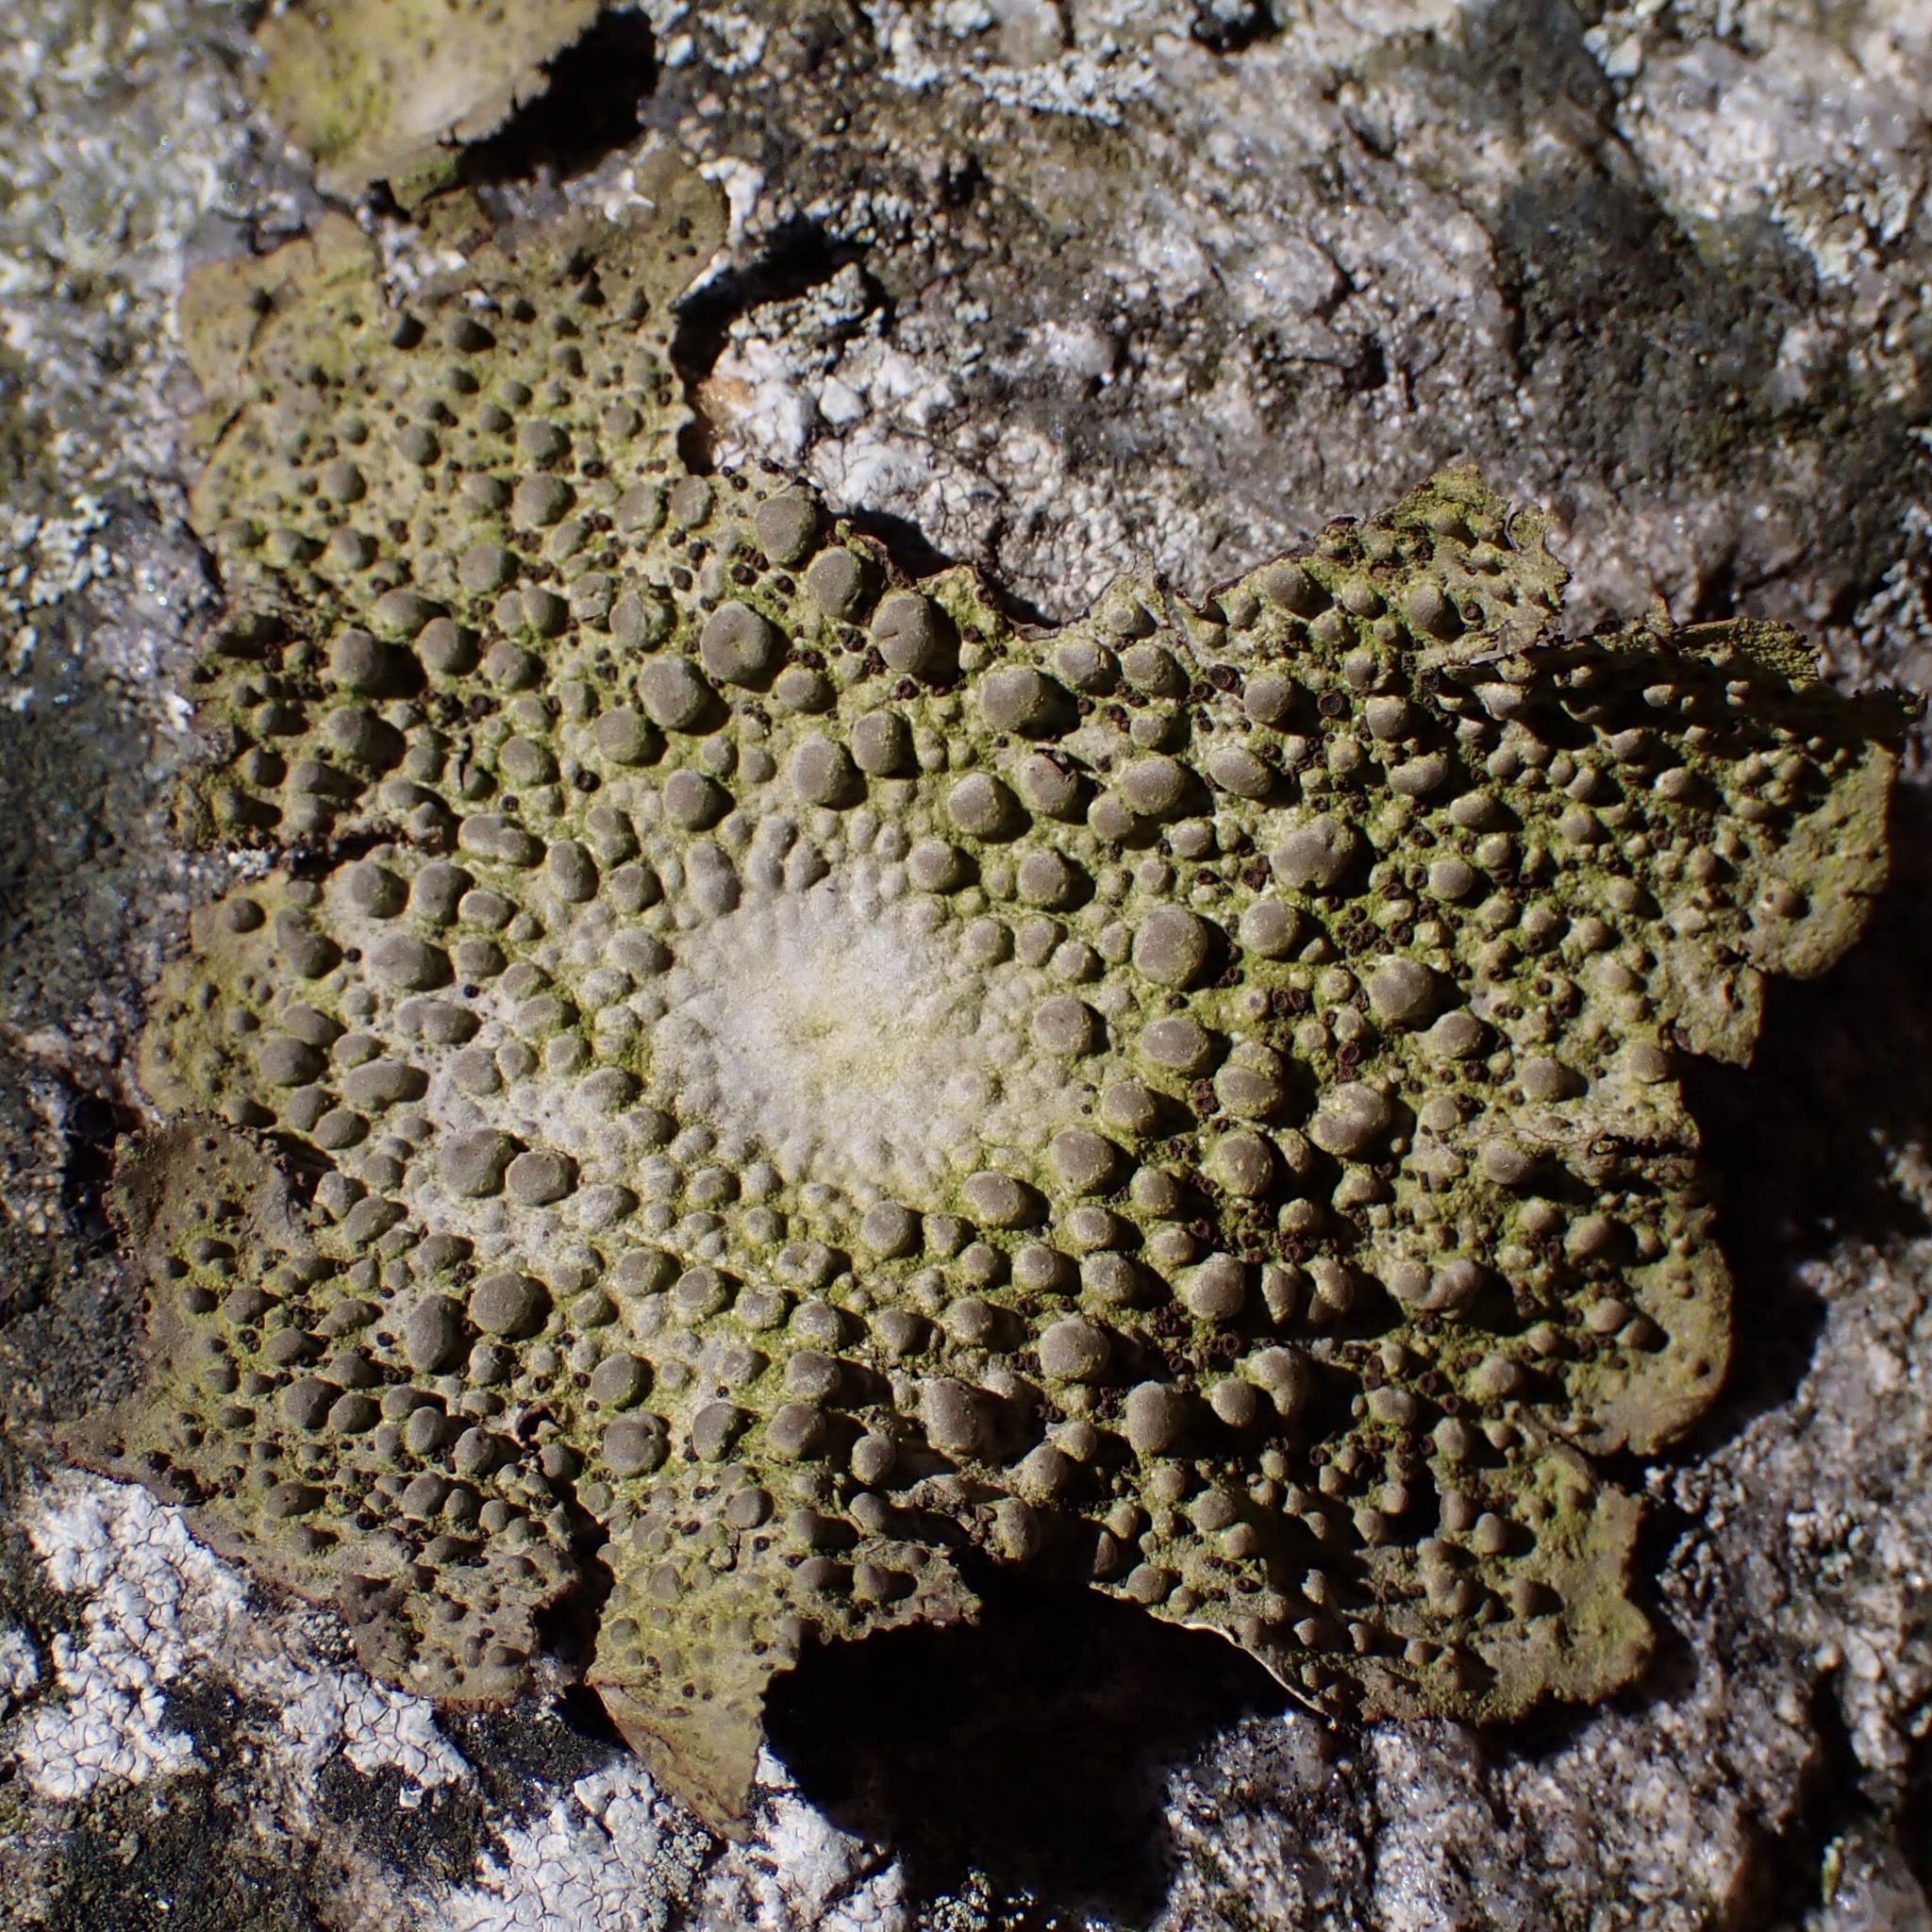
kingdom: Fungi
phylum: Ascomycota
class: Lecanoromycetes
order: Umbilicariales
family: Umbilicariaceae
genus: Lasallia
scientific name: Lasallia papulosa
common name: Common toadskin lichen
